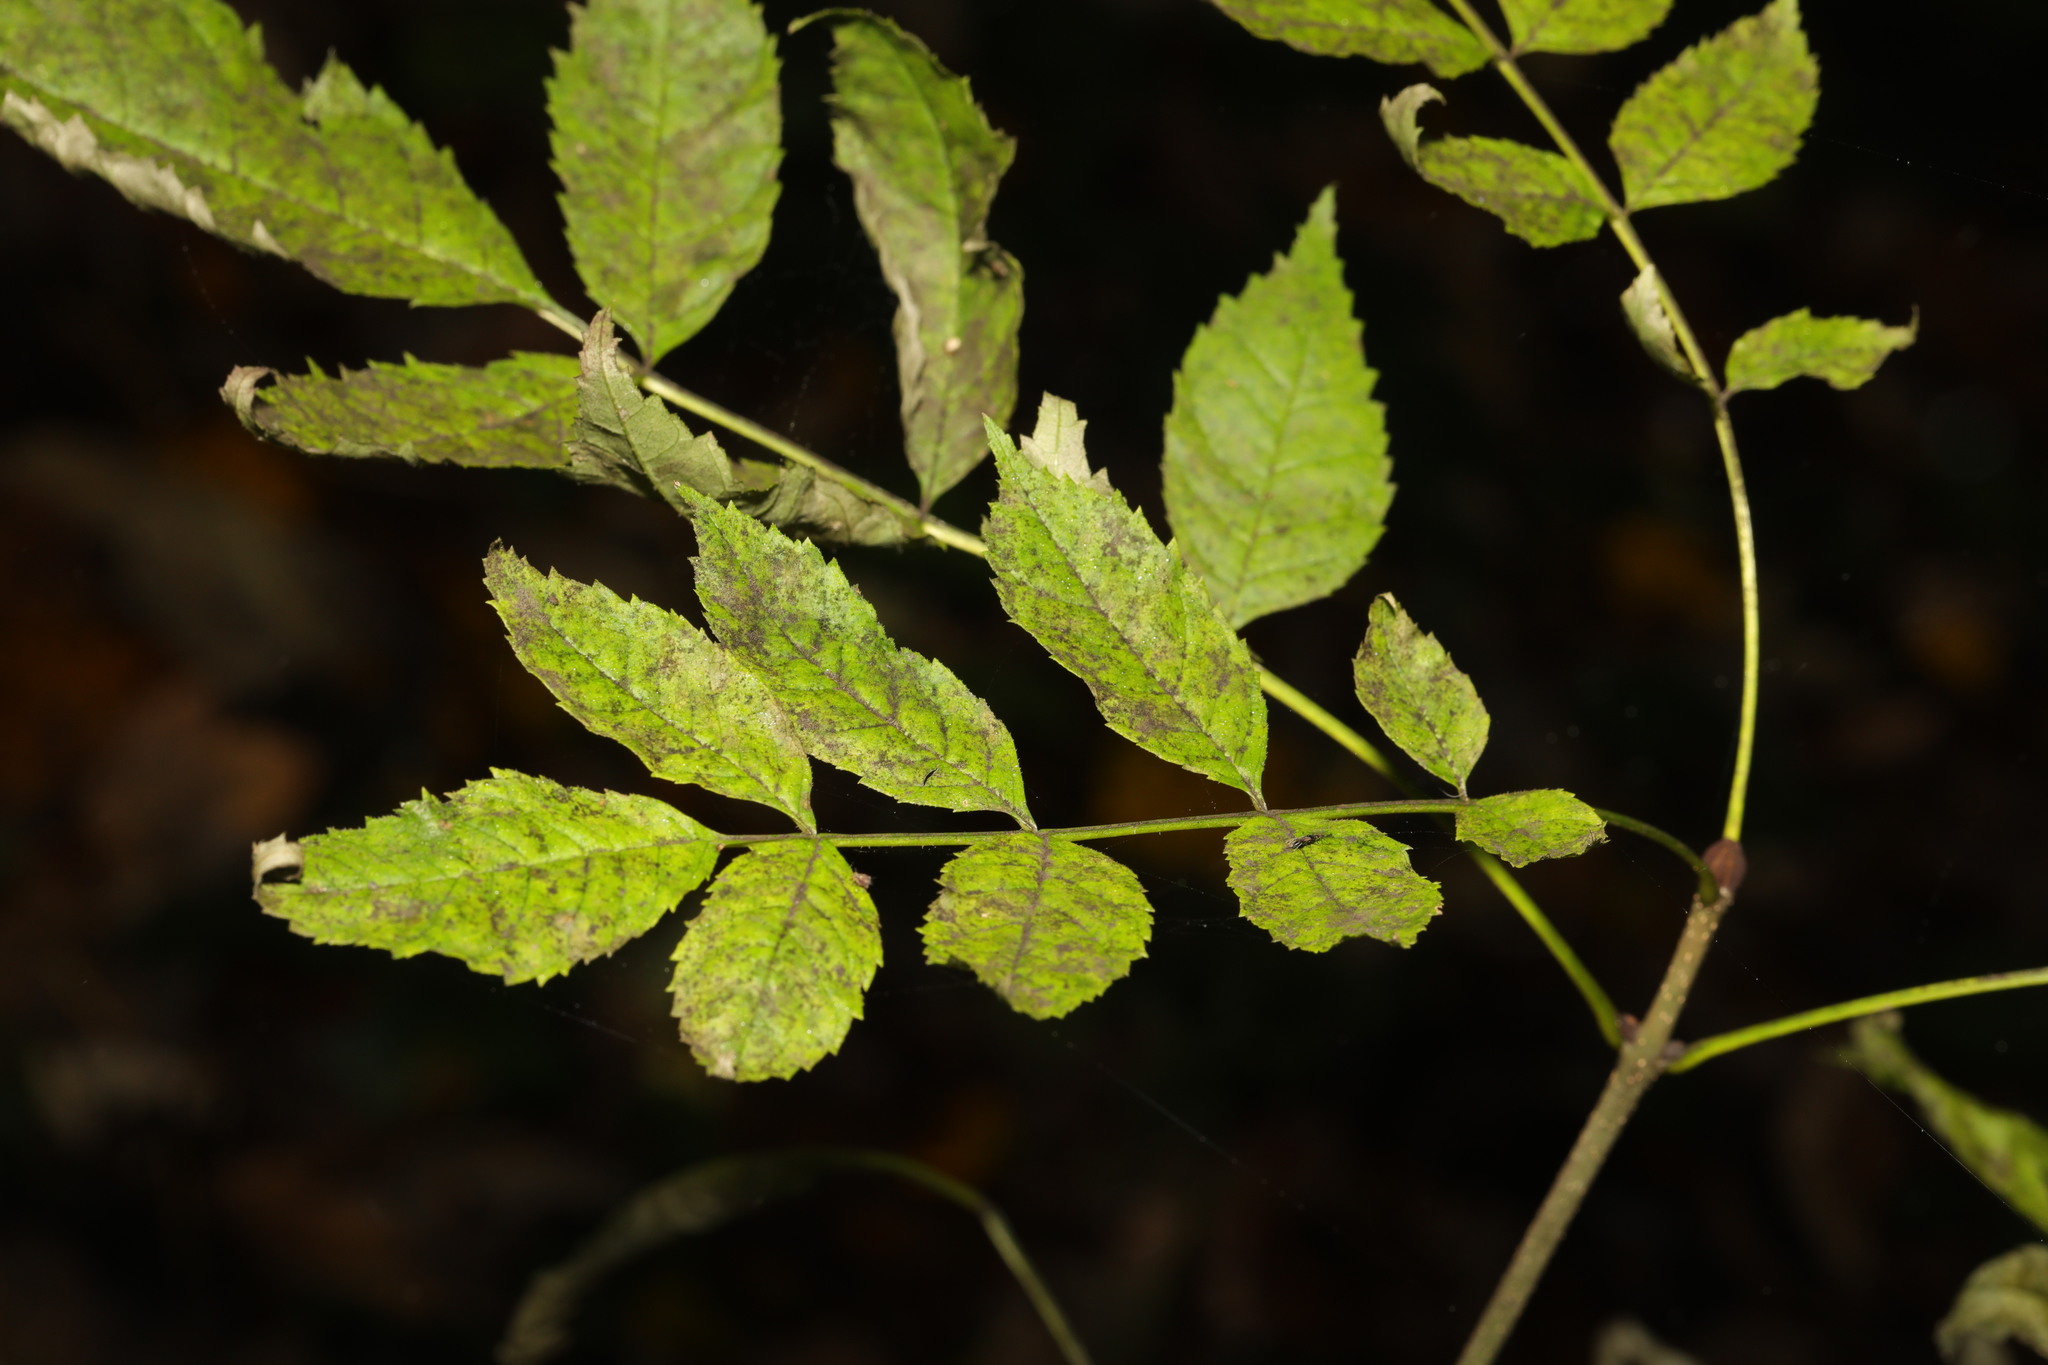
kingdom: Plantae
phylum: Tracheophyta
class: Magnoliopsida
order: Lamiales
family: Oleaceae
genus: Fraxinus
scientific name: Fraxinus excelsior
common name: European ash
